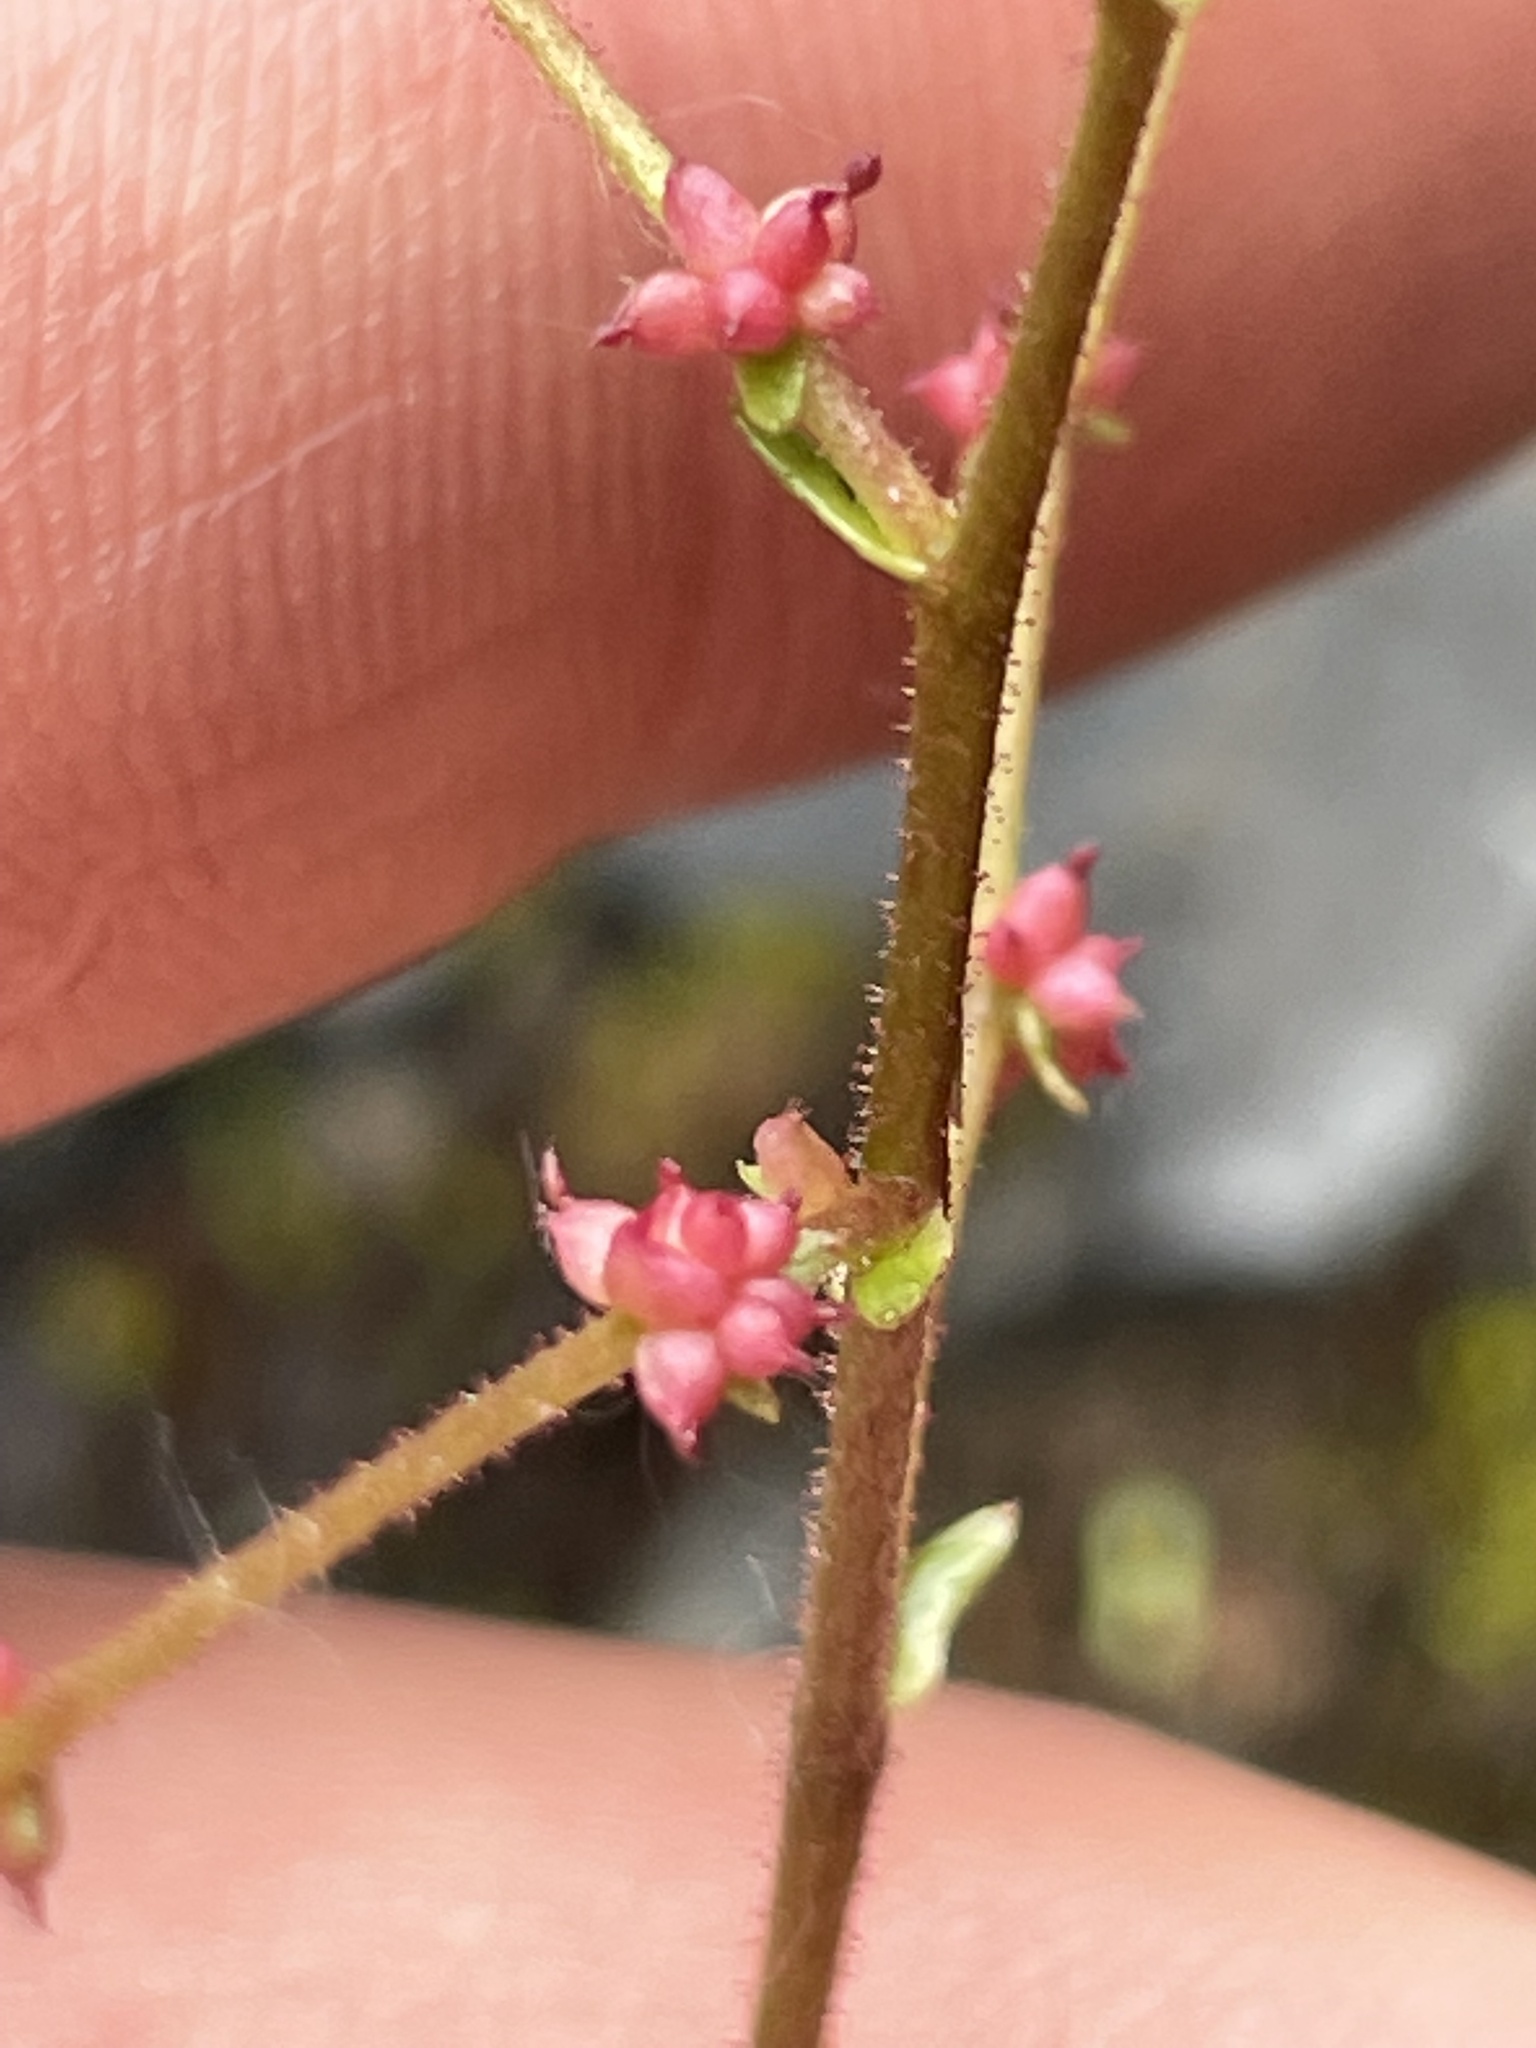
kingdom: Plantae
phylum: Tracheophyta
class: Magnoliopsida
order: Saxifragales
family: Saxifragaceae
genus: Micranthes
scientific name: Micranthes mertensiana
